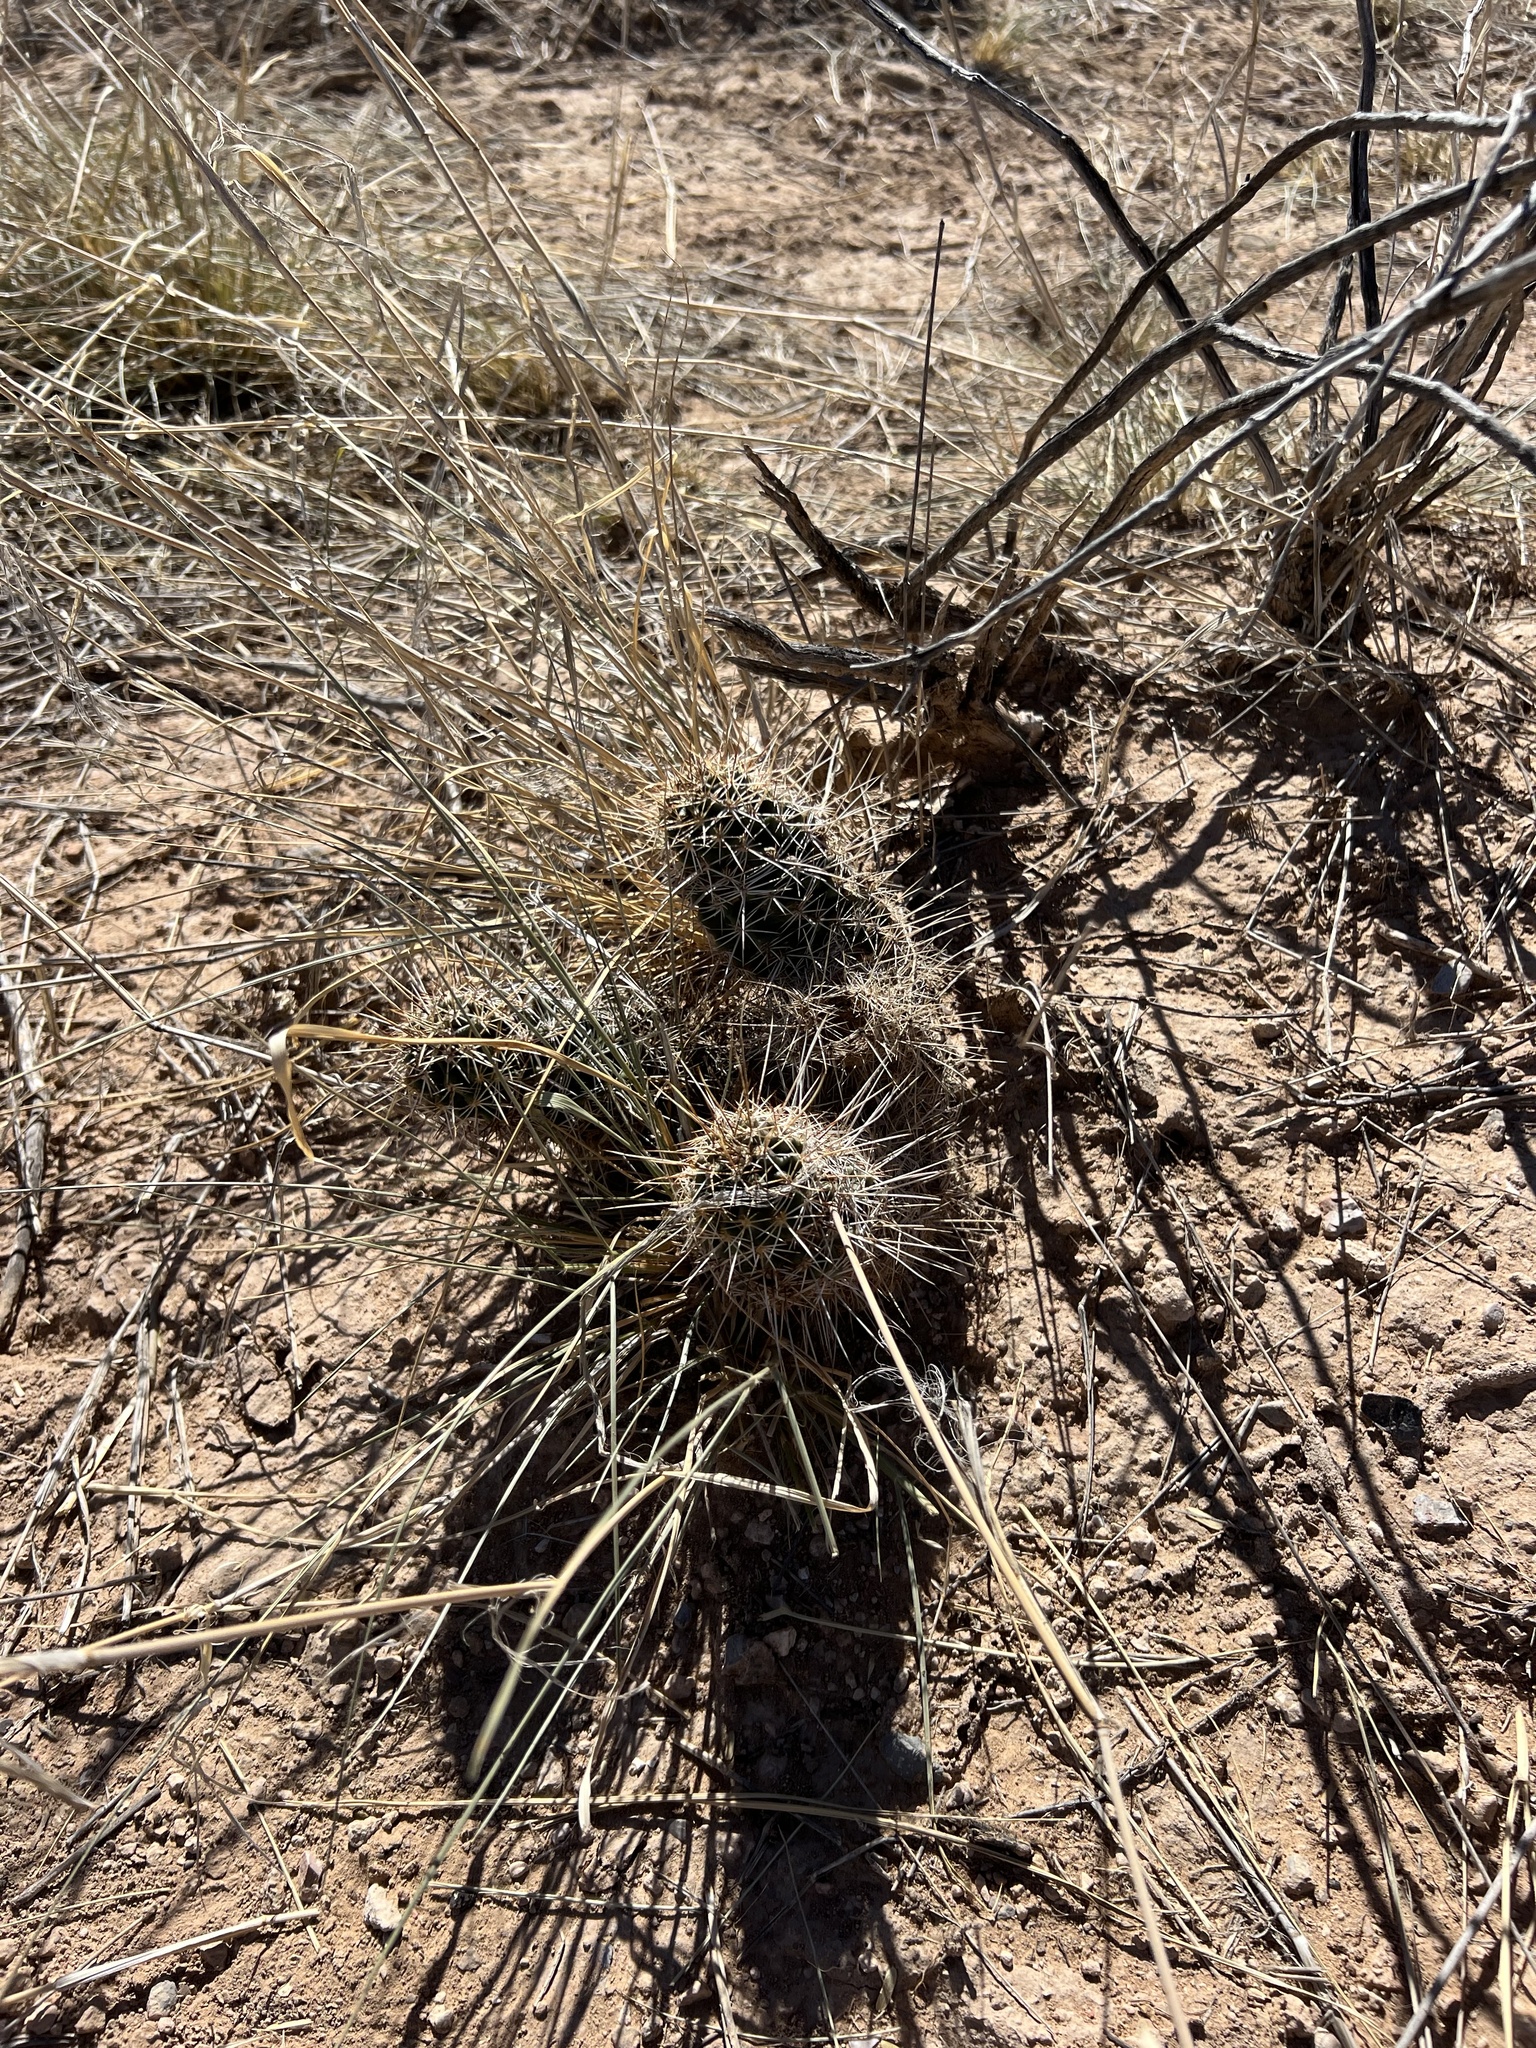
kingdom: Plantae
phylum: Tracheophyta
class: Magnoliopsida
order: Caryophyllales
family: Cactaceae
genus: Echinocereus
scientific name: Echinocereus fasciculatus
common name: Bundle hedgehog
